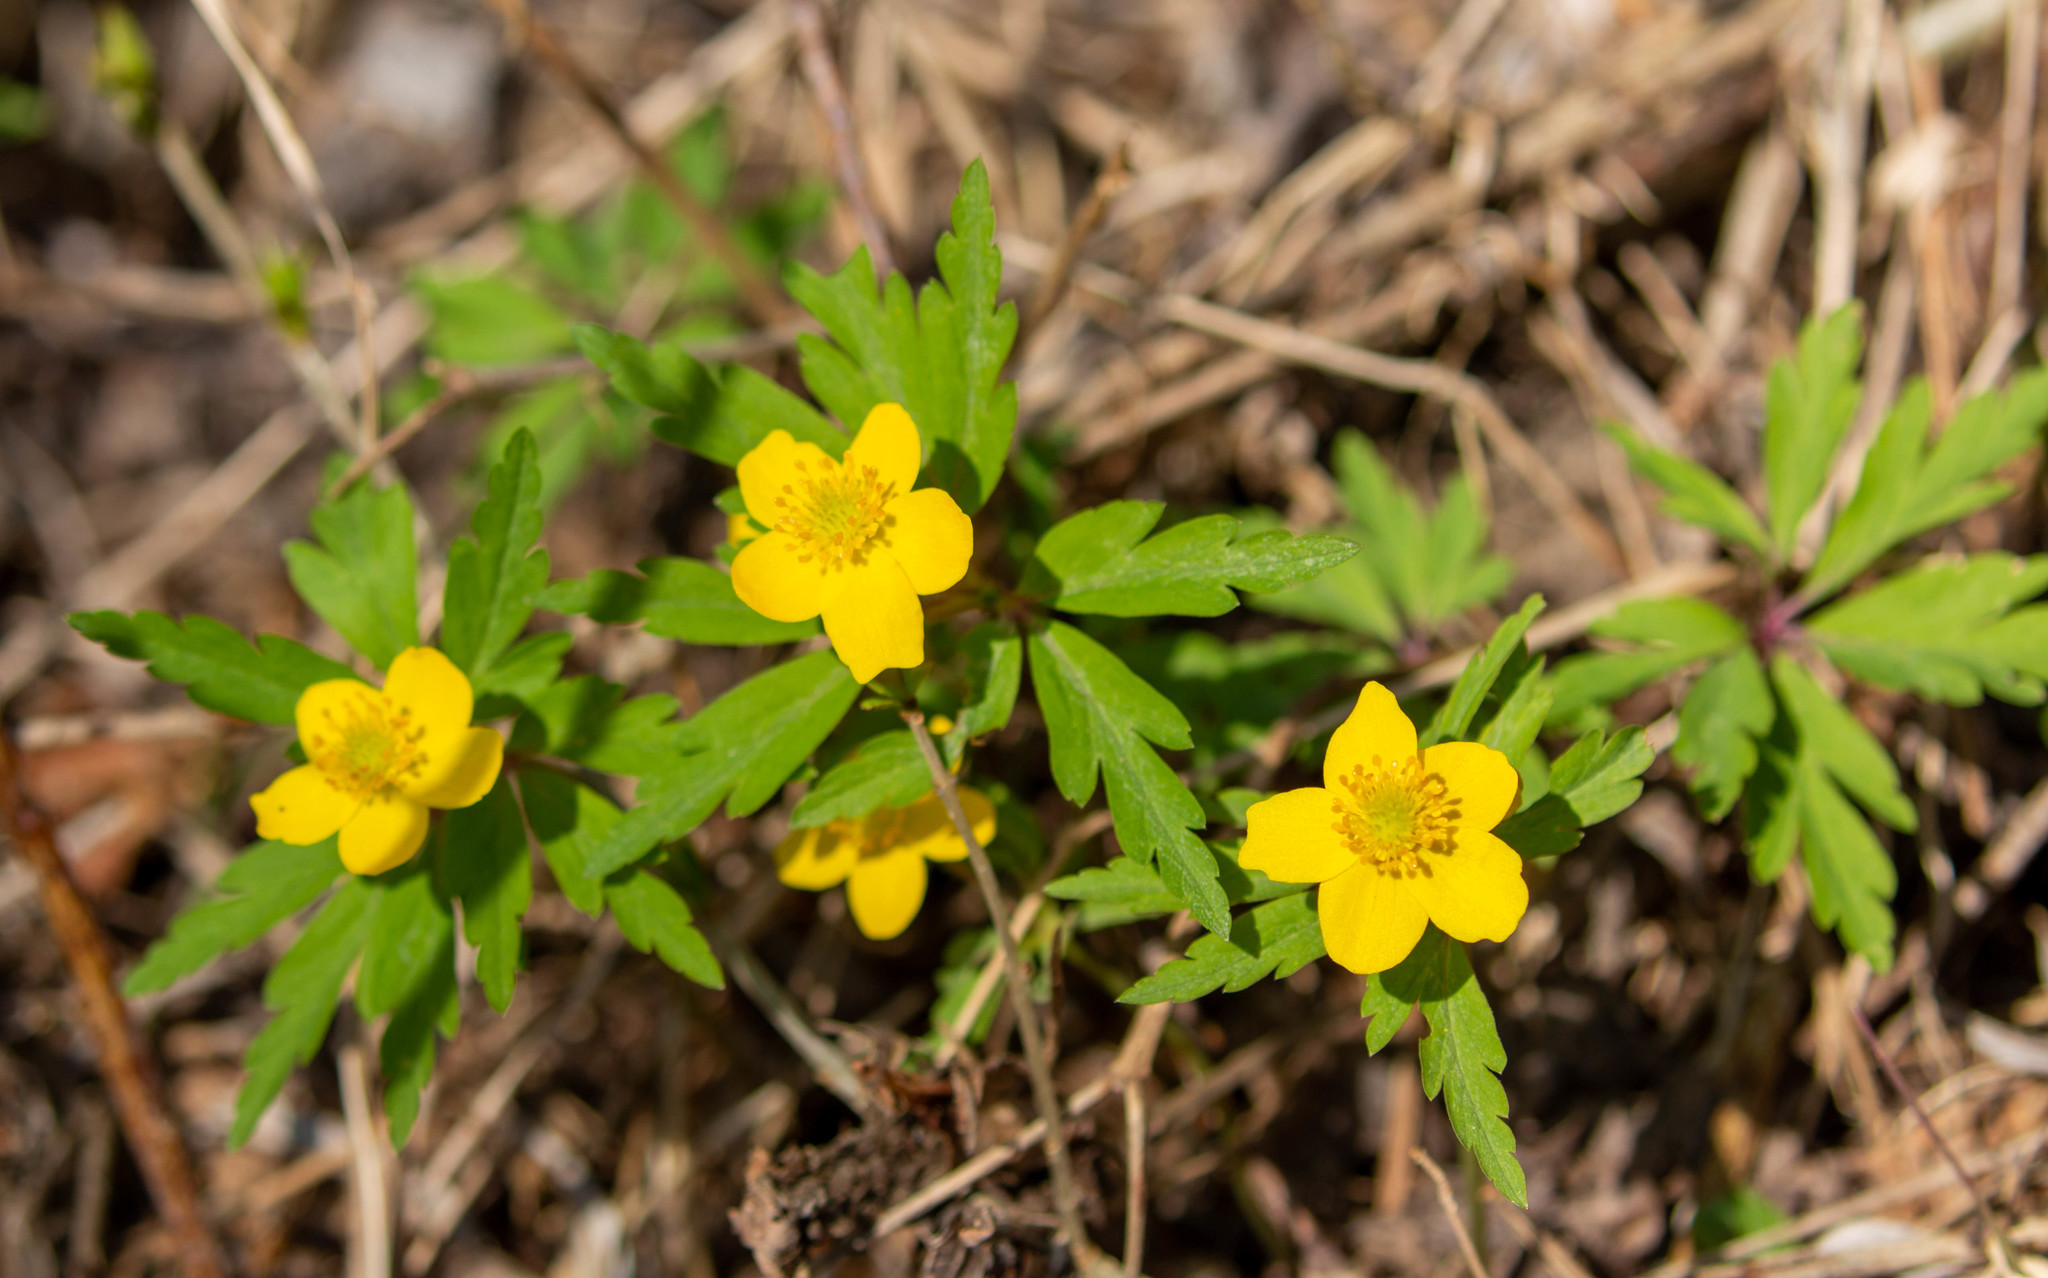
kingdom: Plantae
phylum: Tracheophyta
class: Magnoliopsida
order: Ranunculales
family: Ranunculaceae
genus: Anemone
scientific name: Anemone ranunculoides
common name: Yellow anemone
